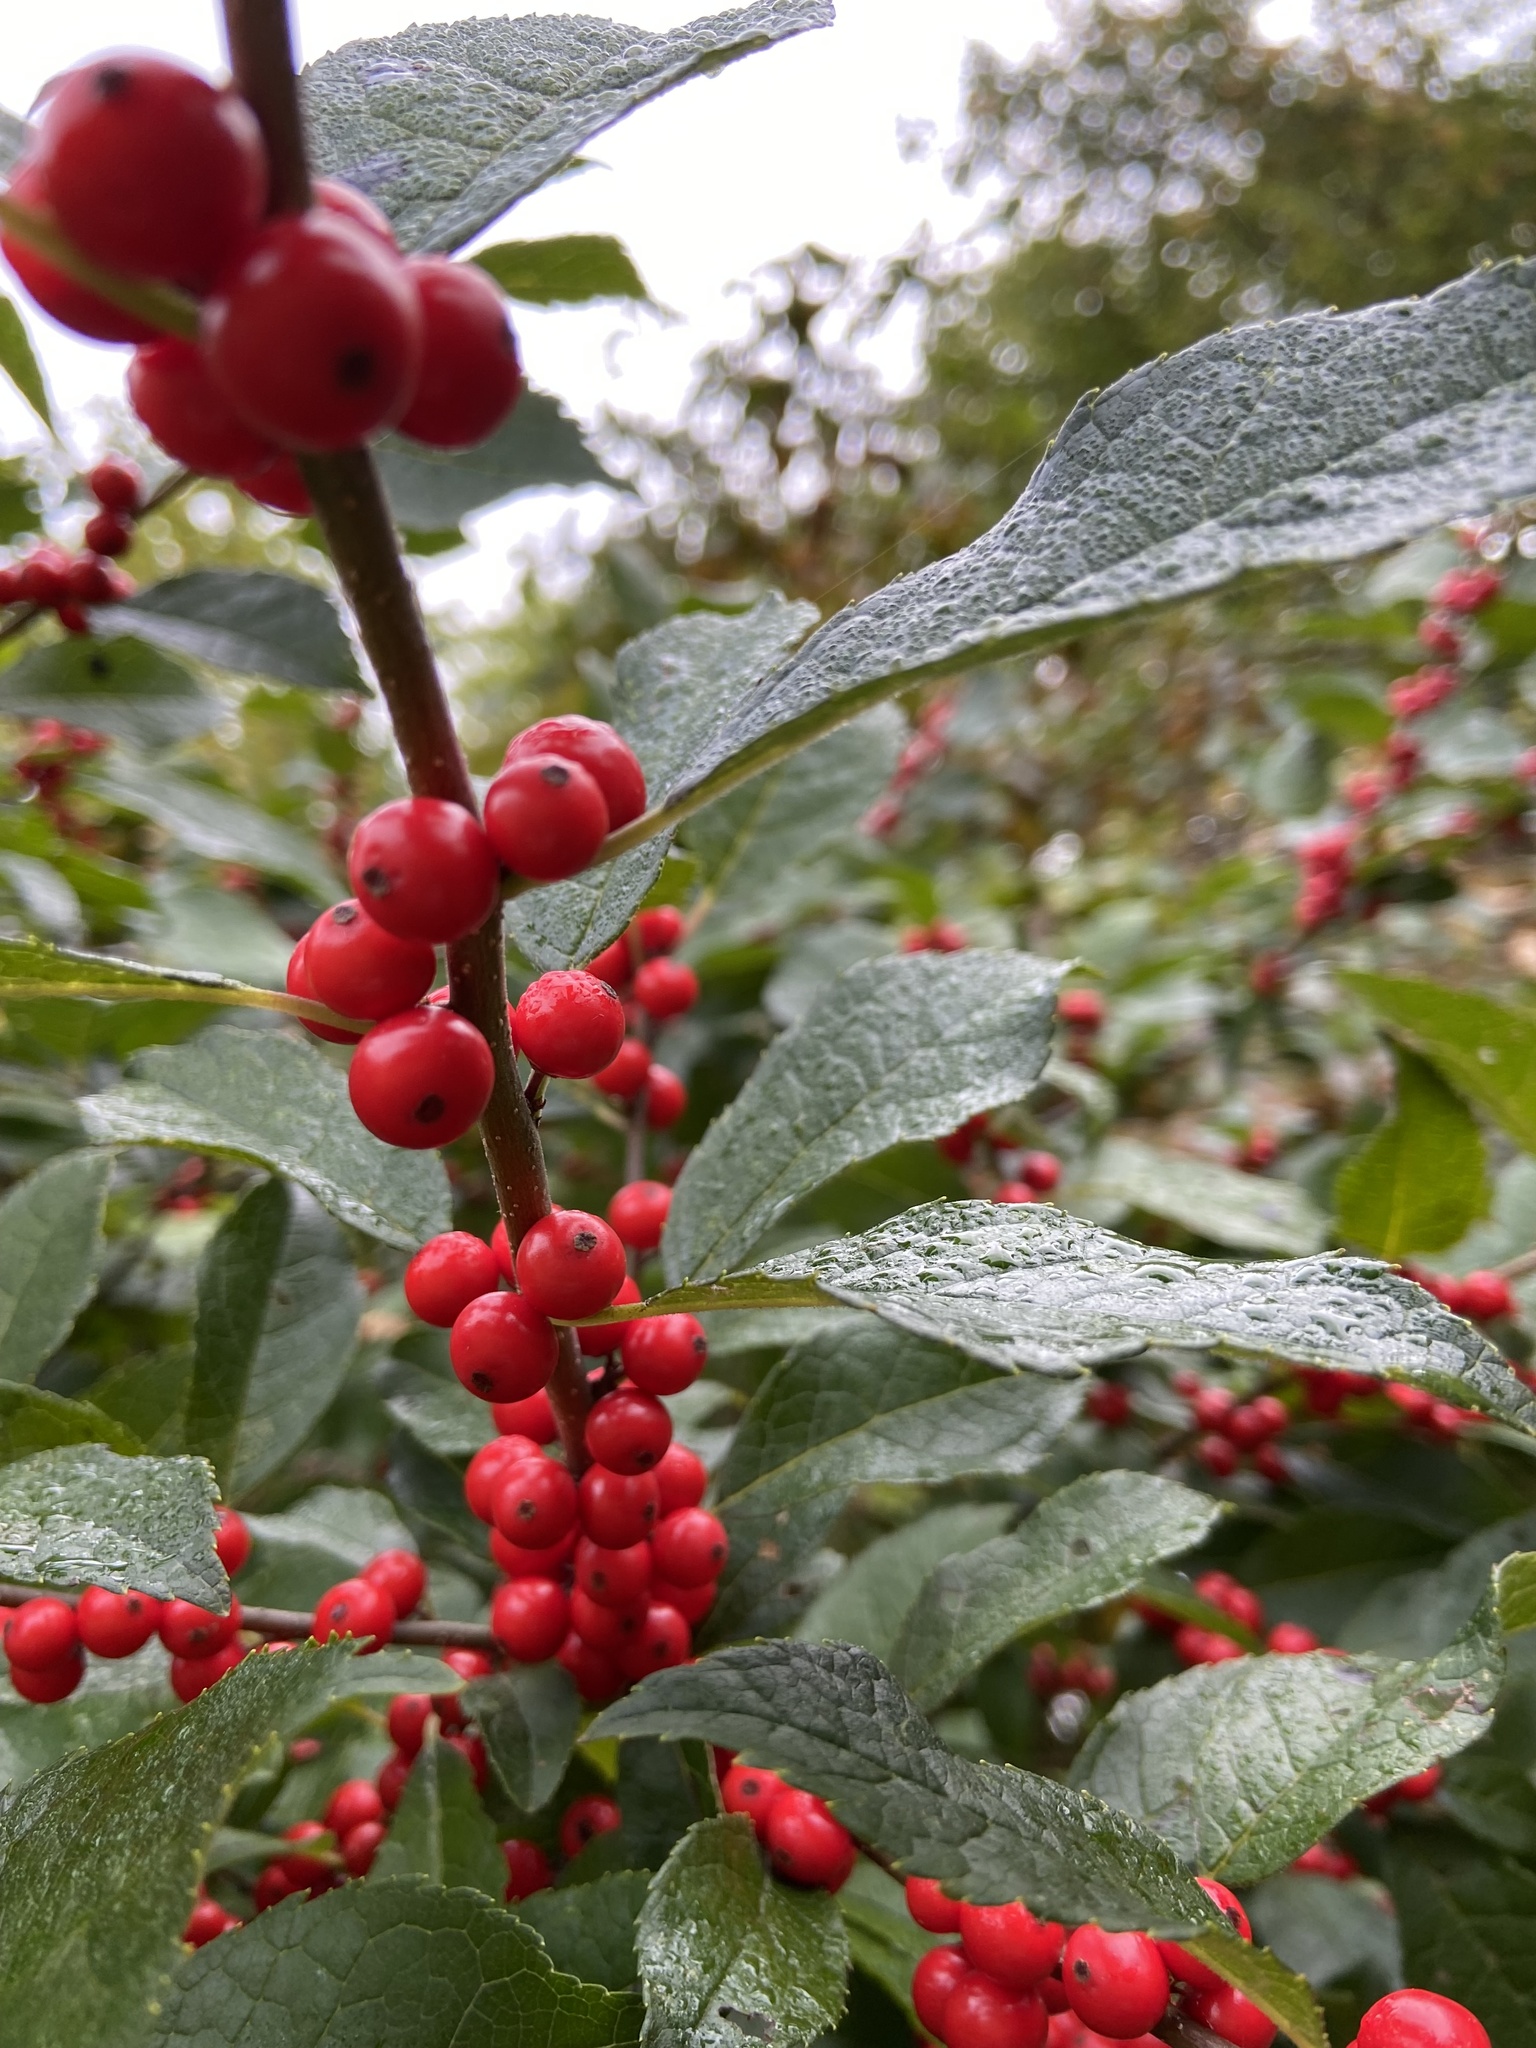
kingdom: Plantae
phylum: Tracheophyta
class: Magnoliopsida
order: Aquifoliales
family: Aquifoliaceae
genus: Ilex
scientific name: Ilex verticillata
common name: Virginia winterberry
